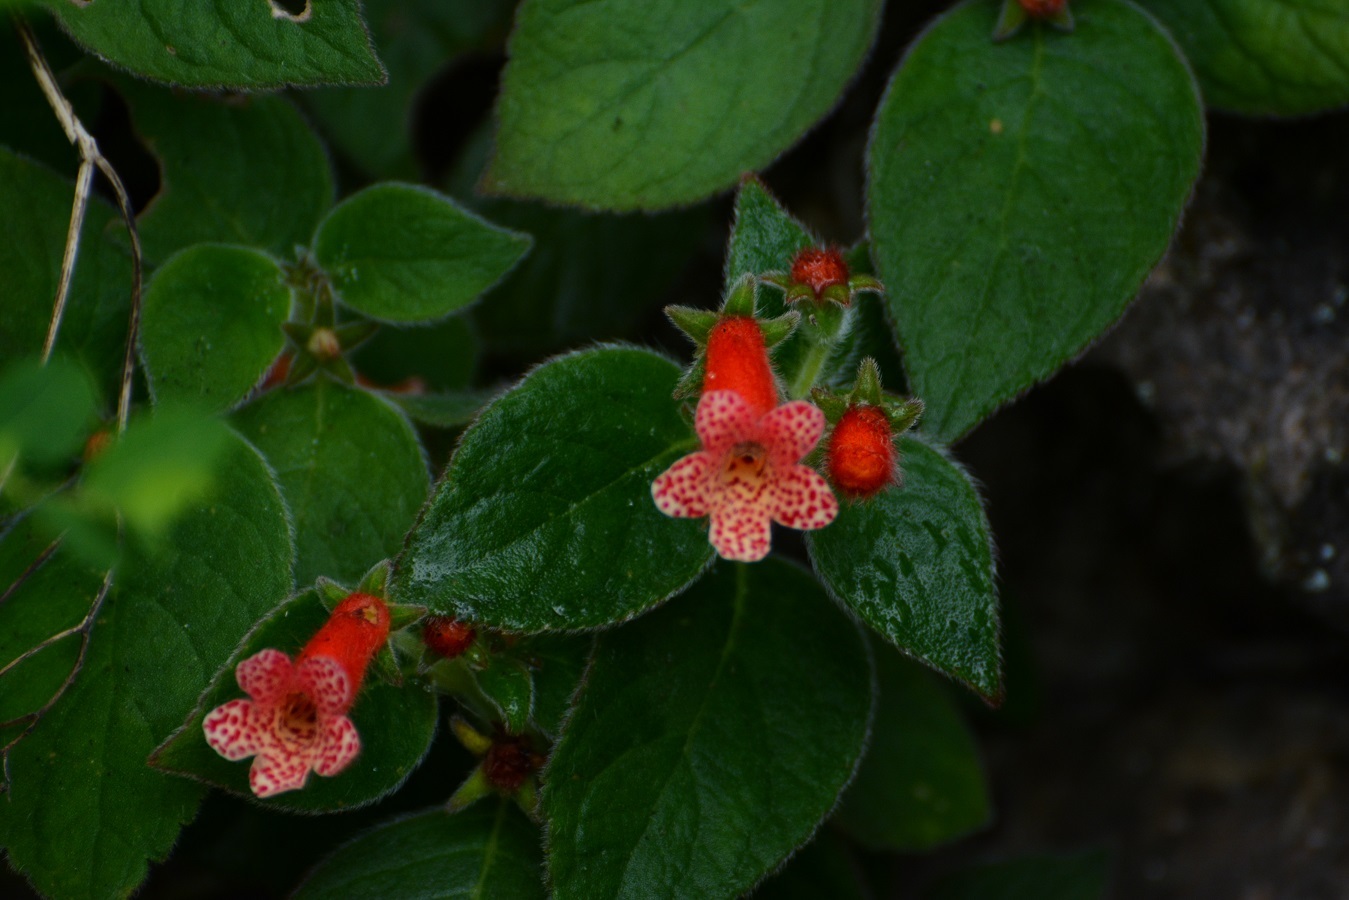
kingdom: Plantae
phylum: Tracheophyta
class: Magnoliopsida
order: Lamiales
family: Gesneriaceae
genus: Kohleria
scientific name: Kohleria rugata
